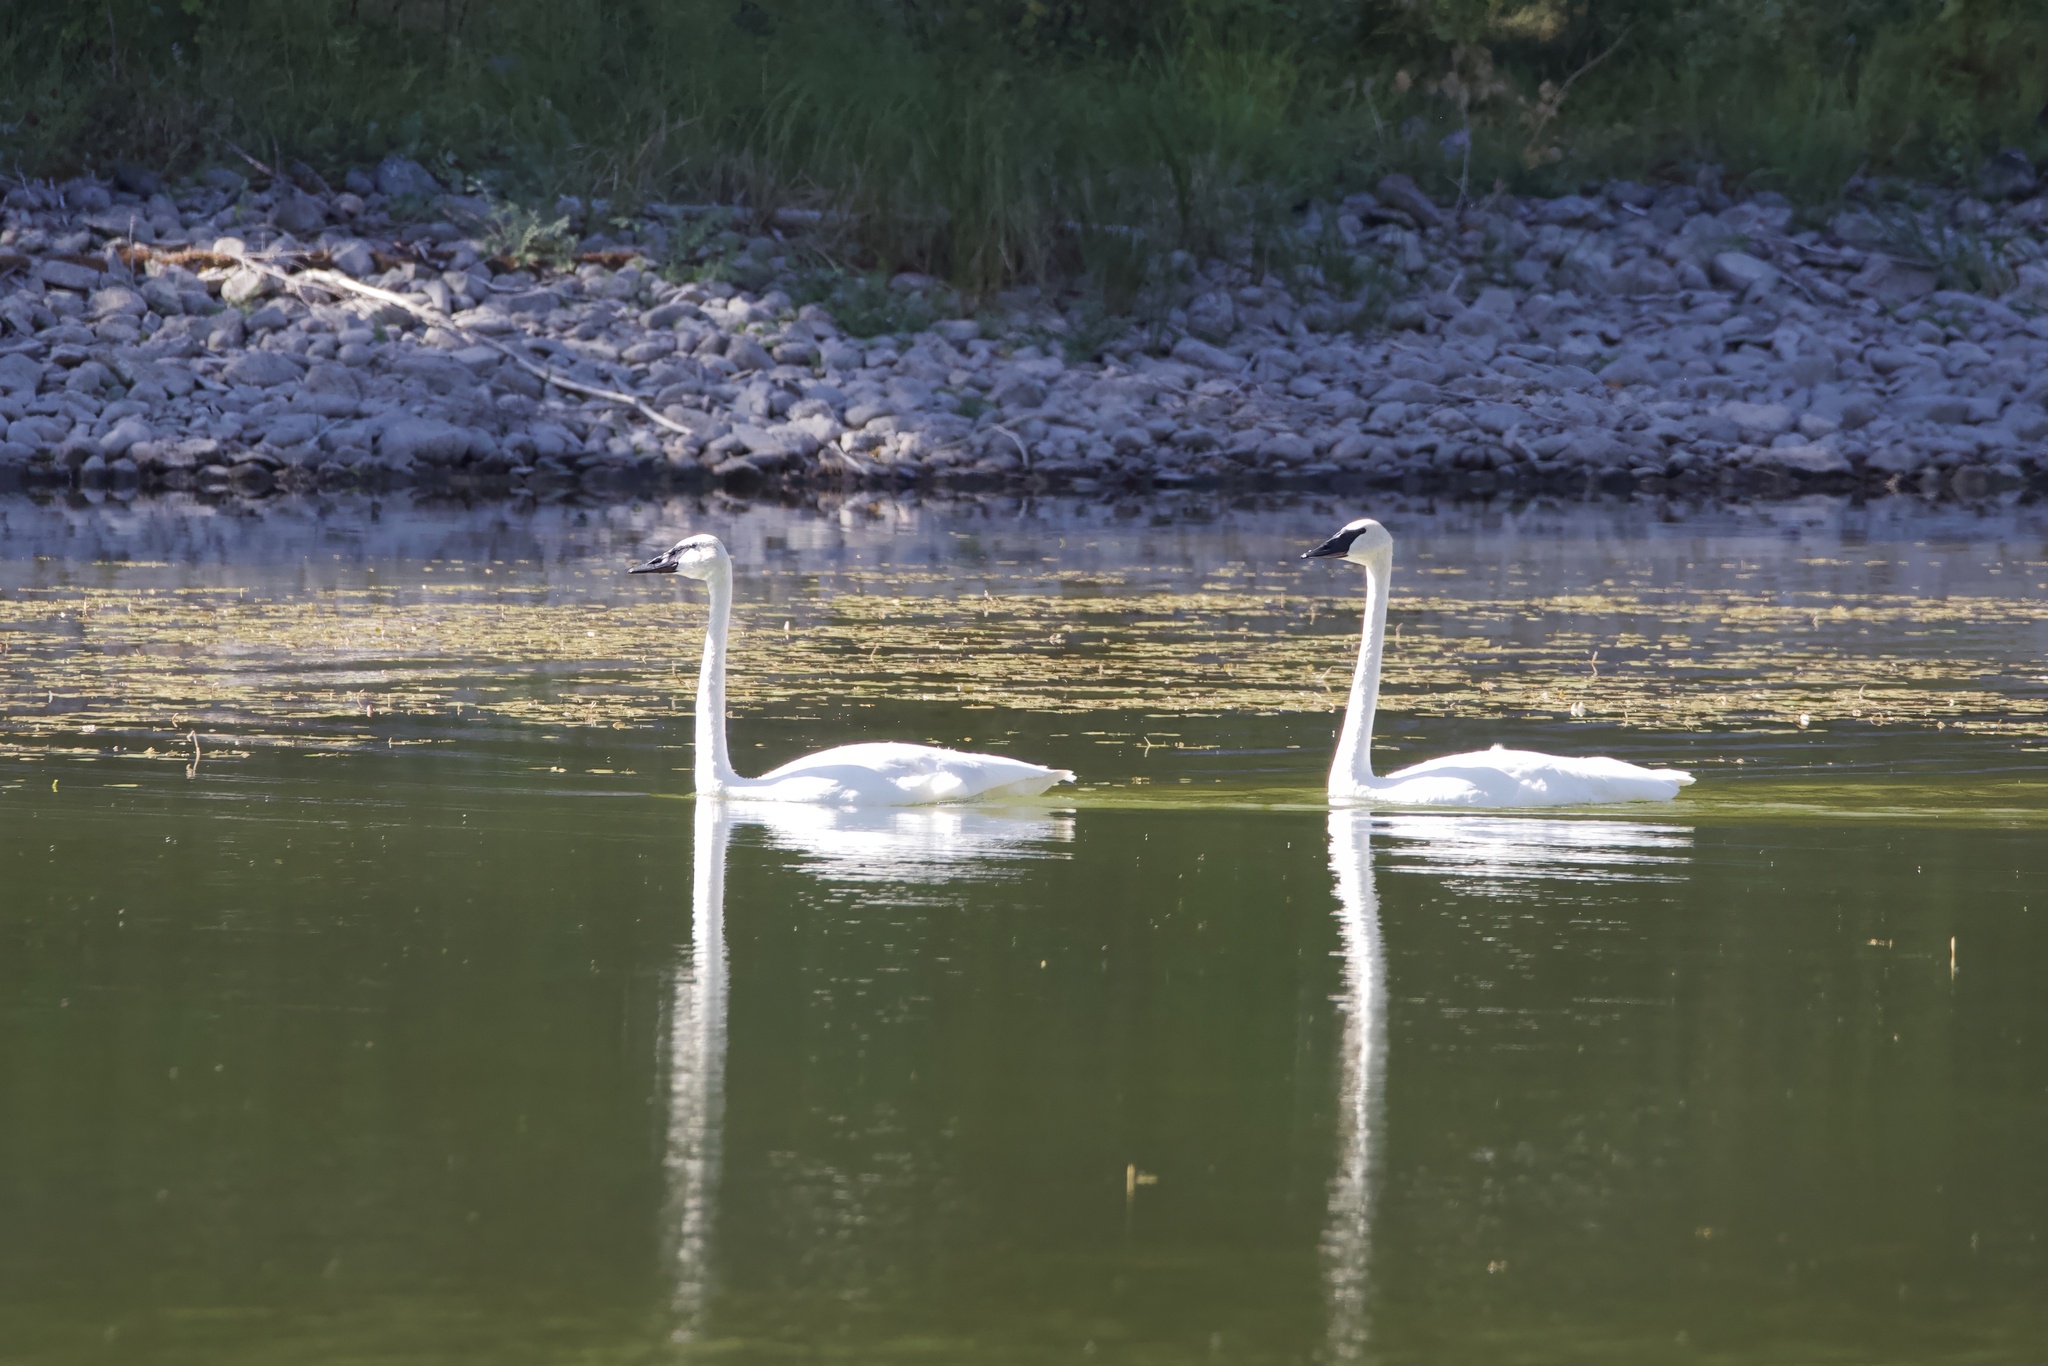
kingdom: Animalia
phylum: Chordata
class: Aves
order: Anseriformes
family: Anatidae
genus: Cygnus
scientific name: Cygnus buccinator
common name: Trumpeter swan
